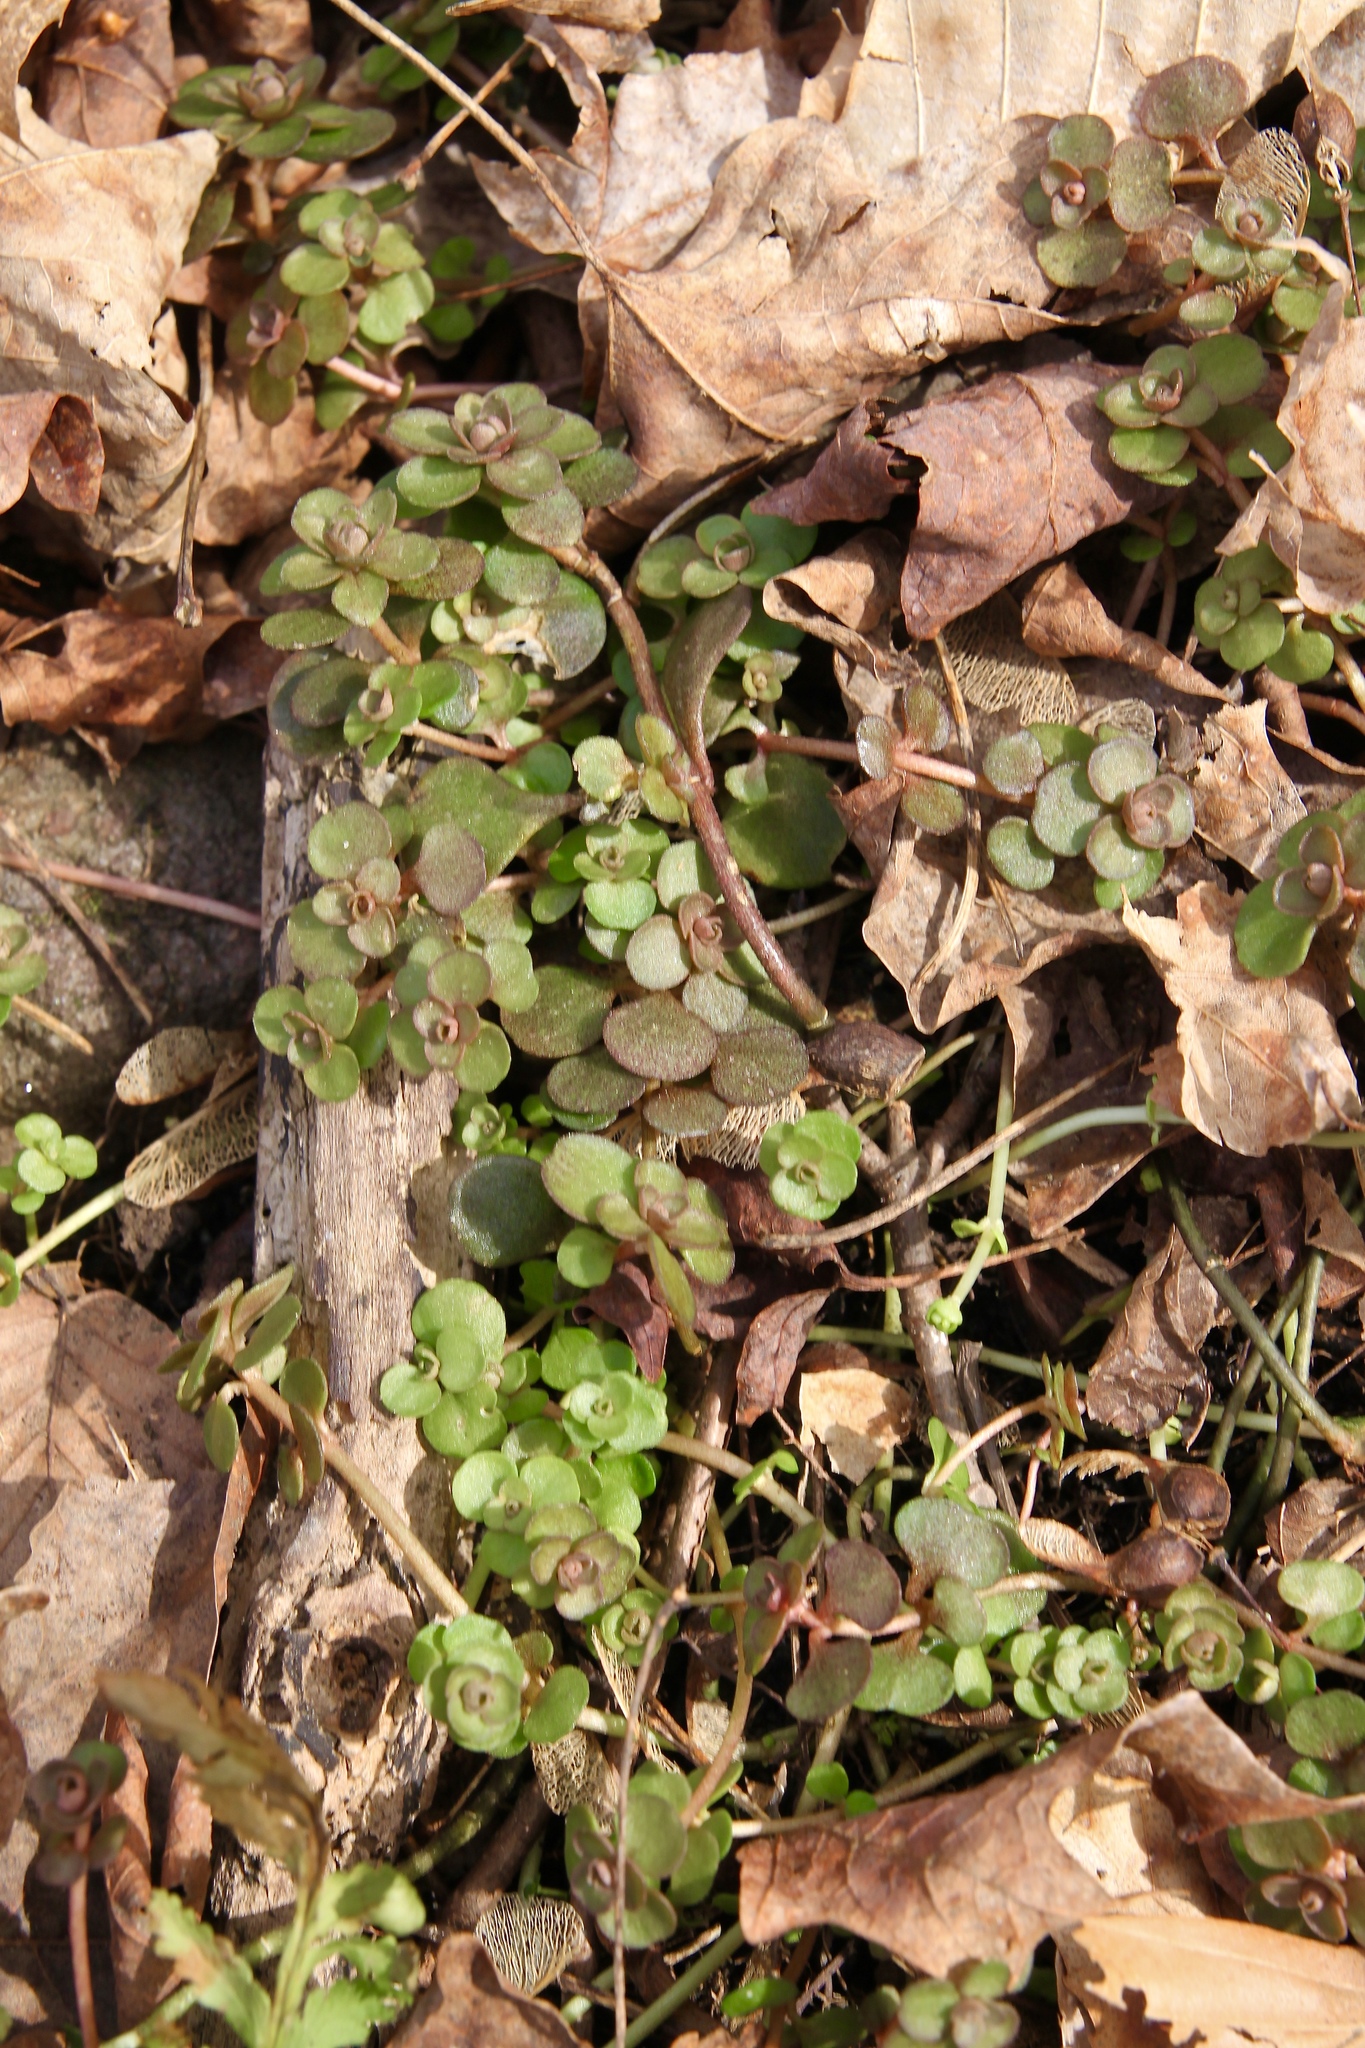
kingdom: Plantae
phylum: Tracheophyta
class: Magnoliopsida
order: Saxifragales
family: Crassulaceae
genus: Sedum
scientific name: Sedum ternatum
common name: Wild stonecrop
